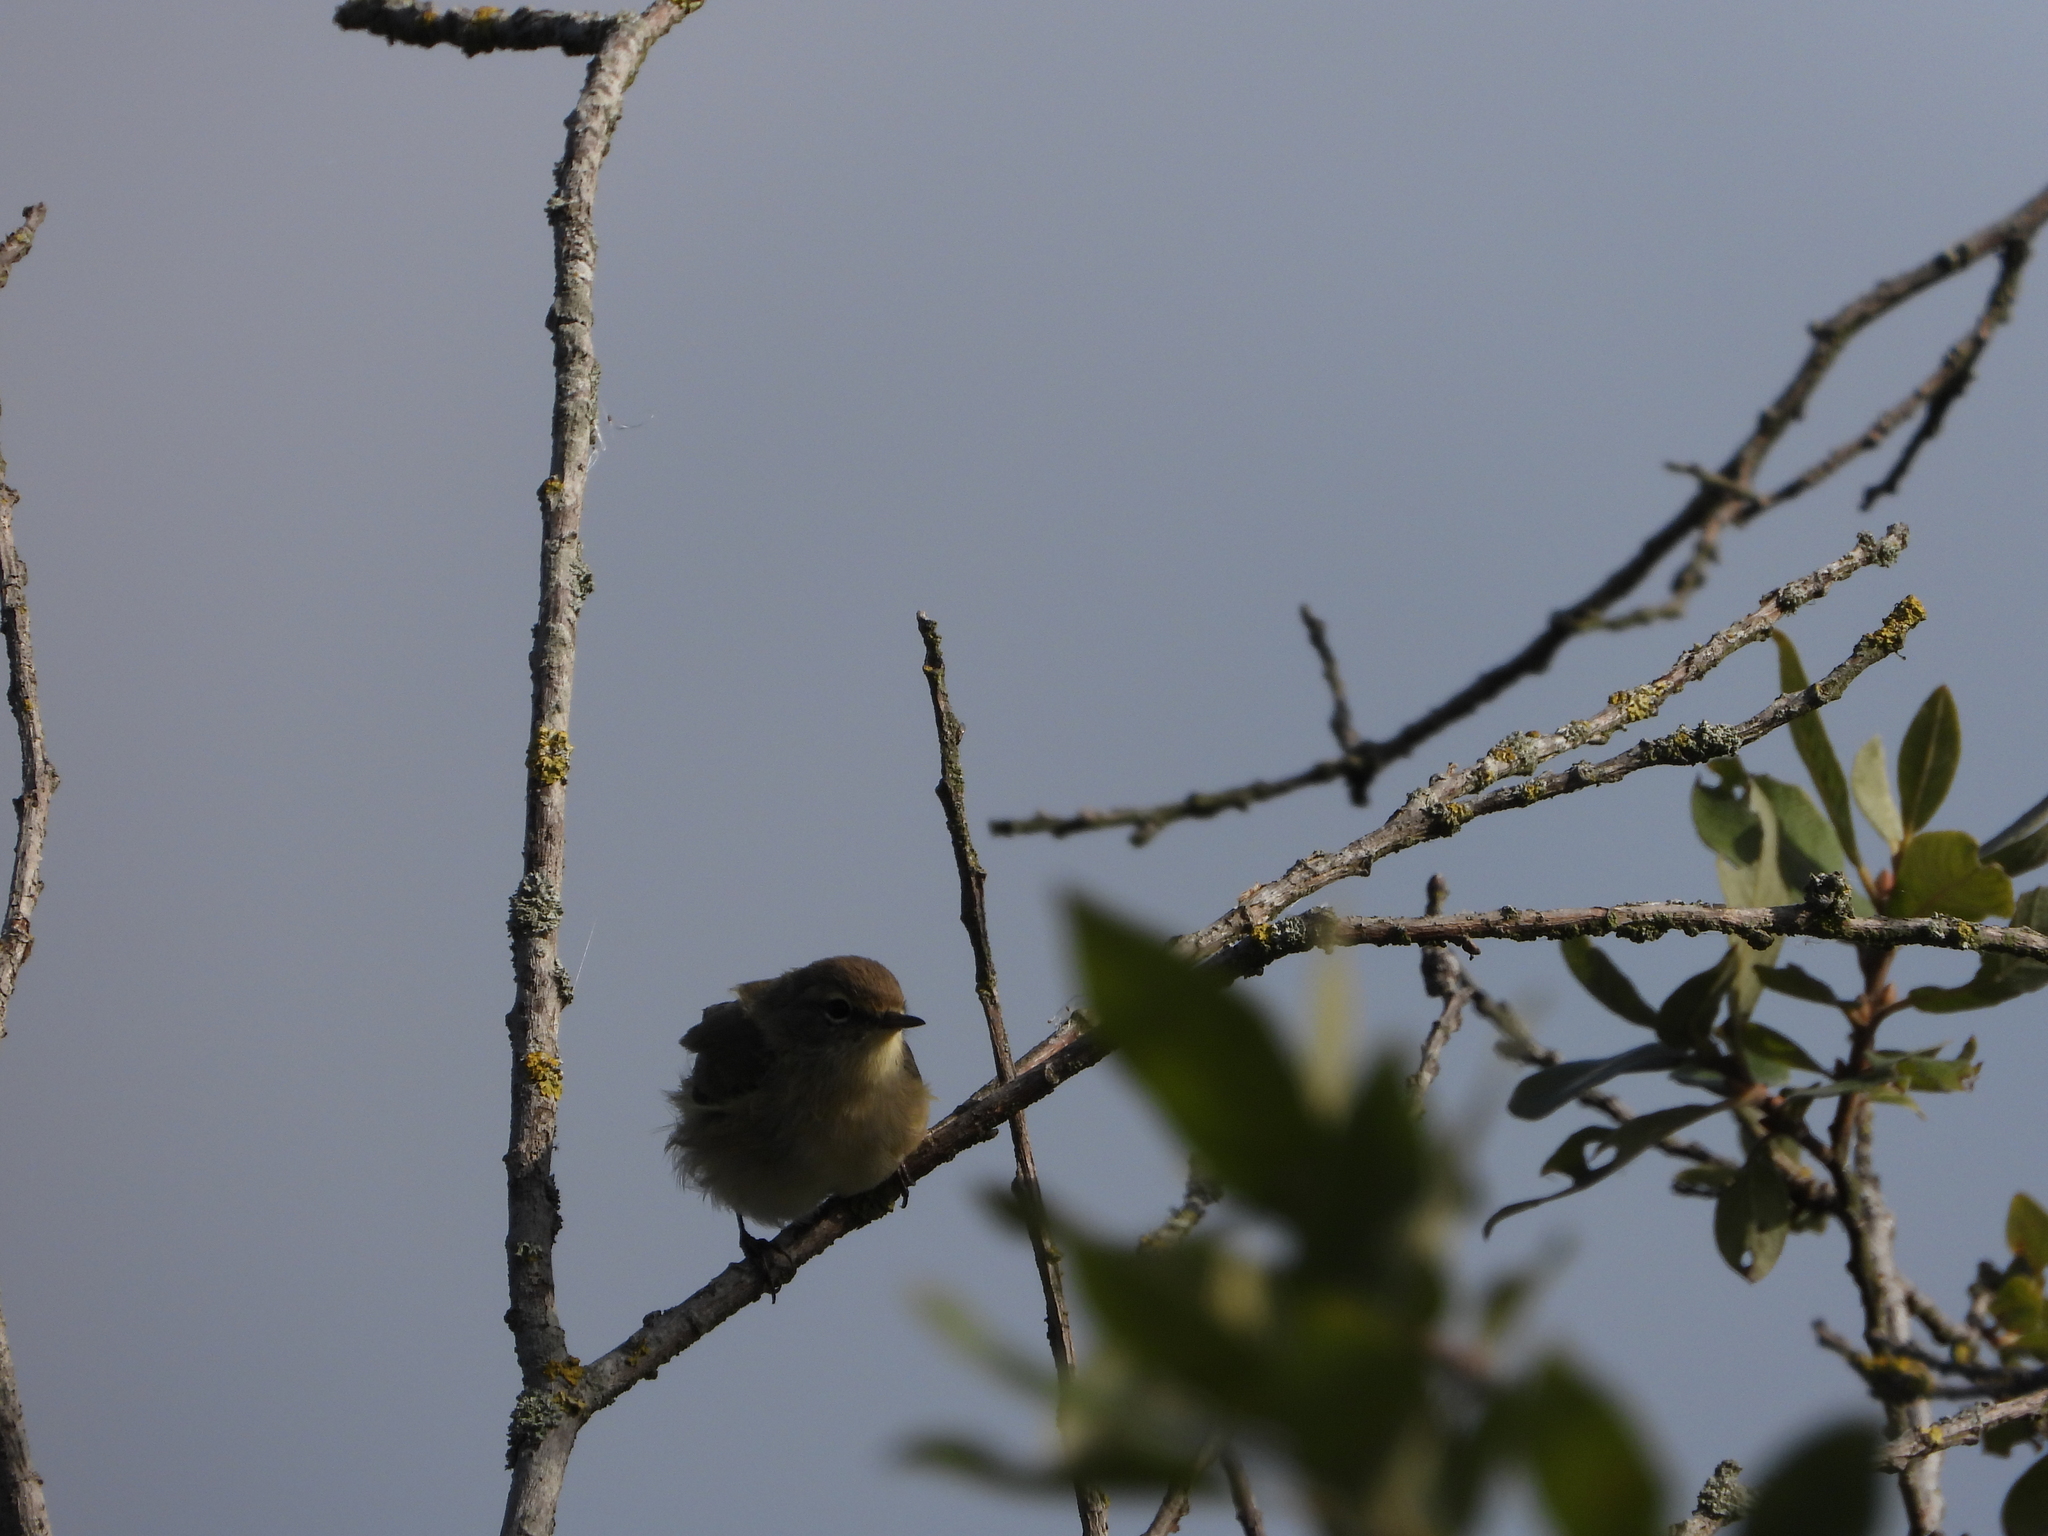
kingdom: Animalia
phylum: Chordata
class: Aves
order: Passeriformes
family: Phylloscopidae
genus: Phylloscopus
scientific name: Phylloscopus collybita
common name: Common chiffchaff
